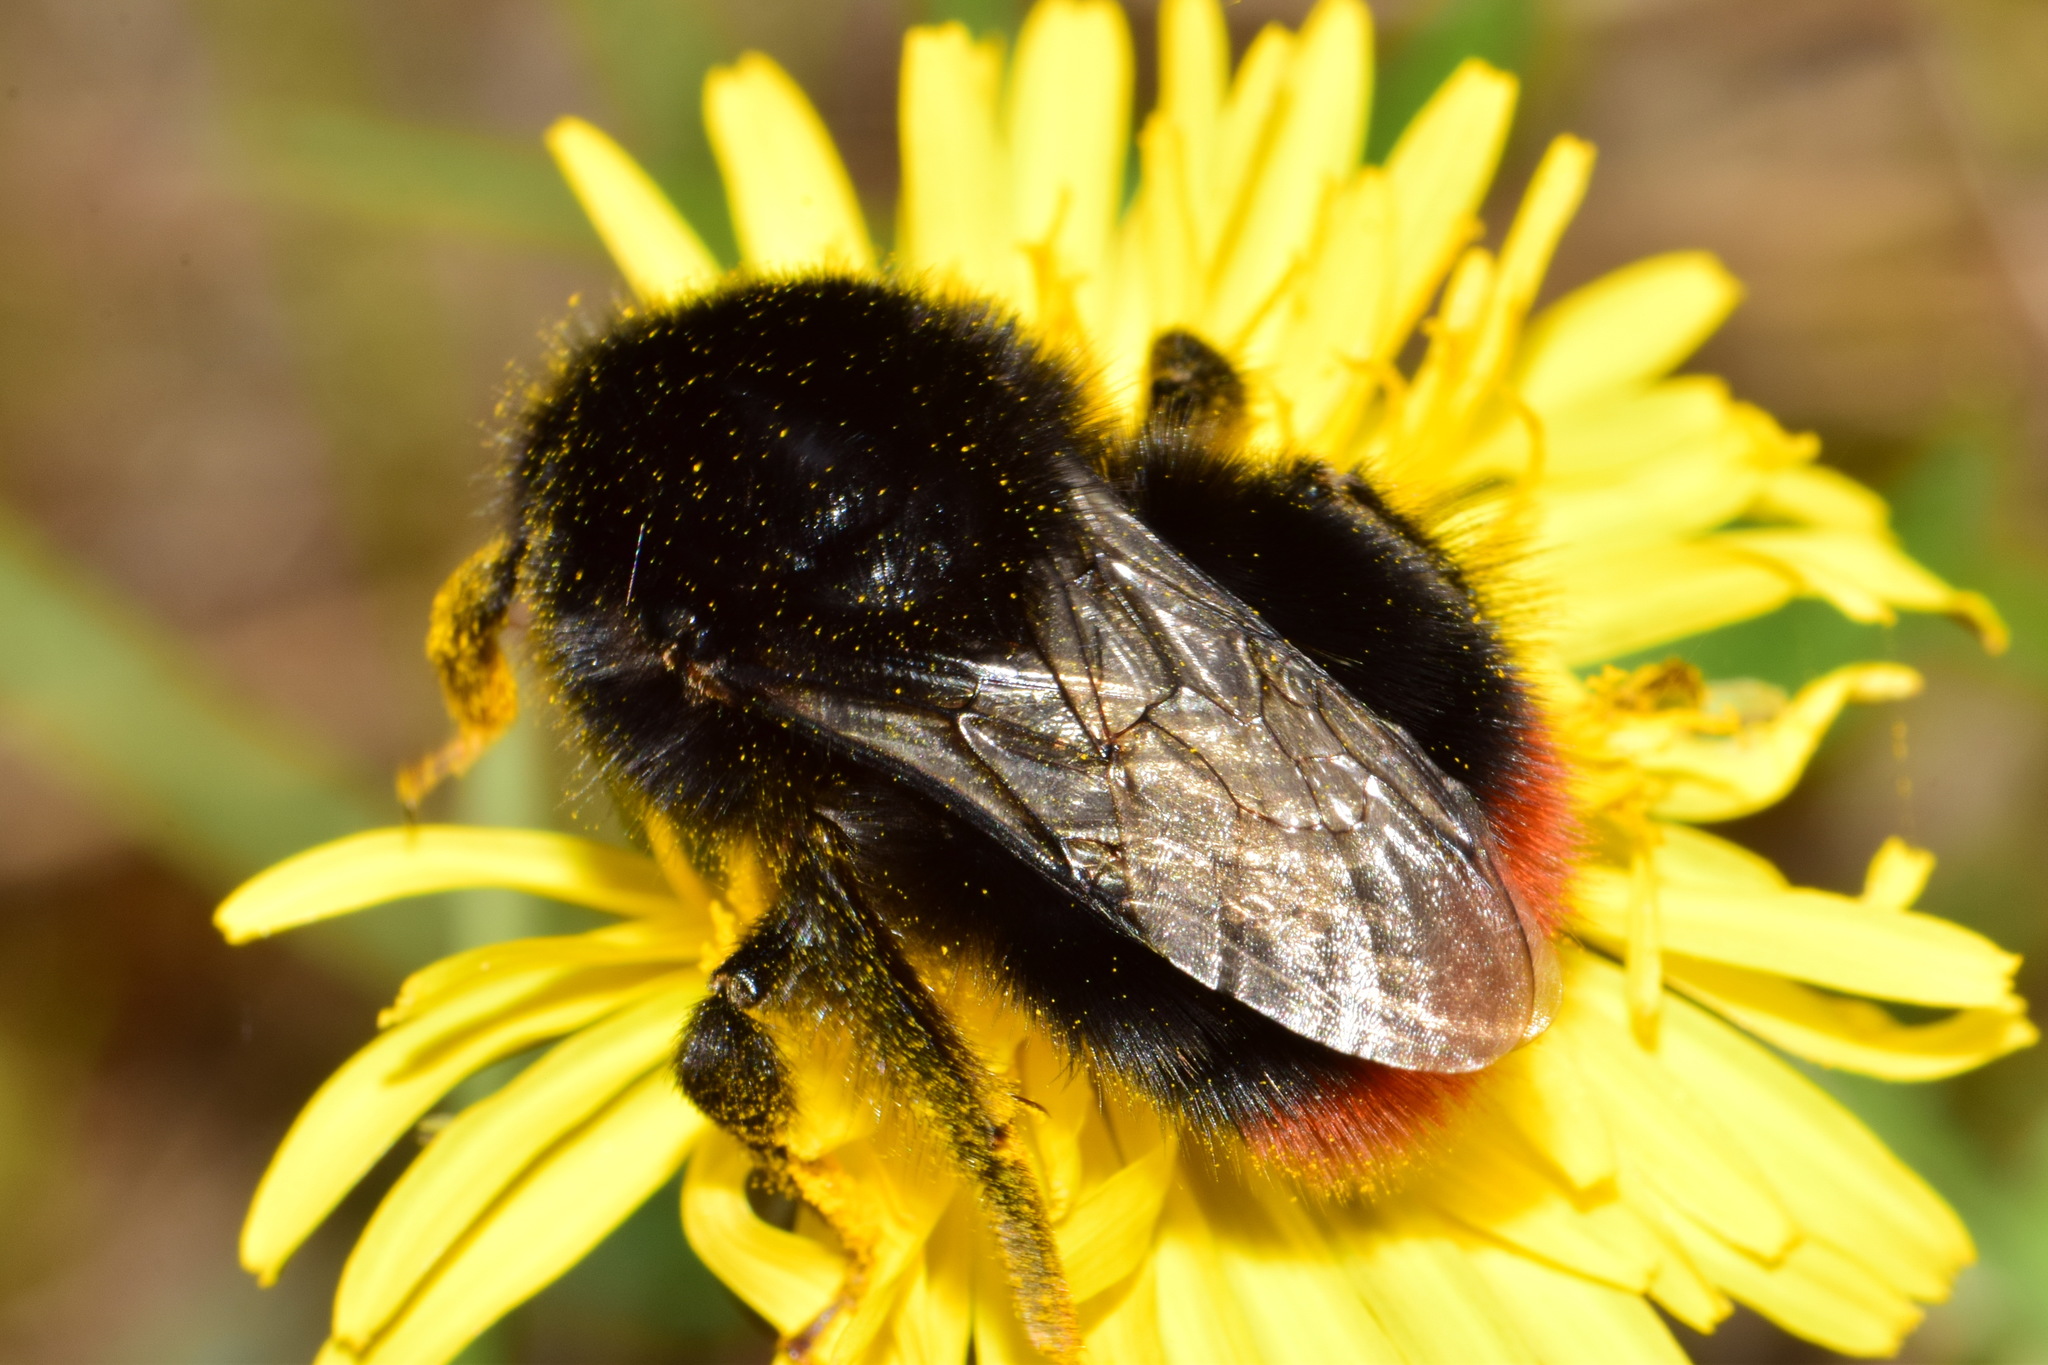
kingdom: Animalia
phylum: Arthropoda
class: Insecta
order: Hymenoptera
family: Apidae
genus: Bombus
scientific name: Bombus lapidarius
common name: Large red-tailed humble-bee
